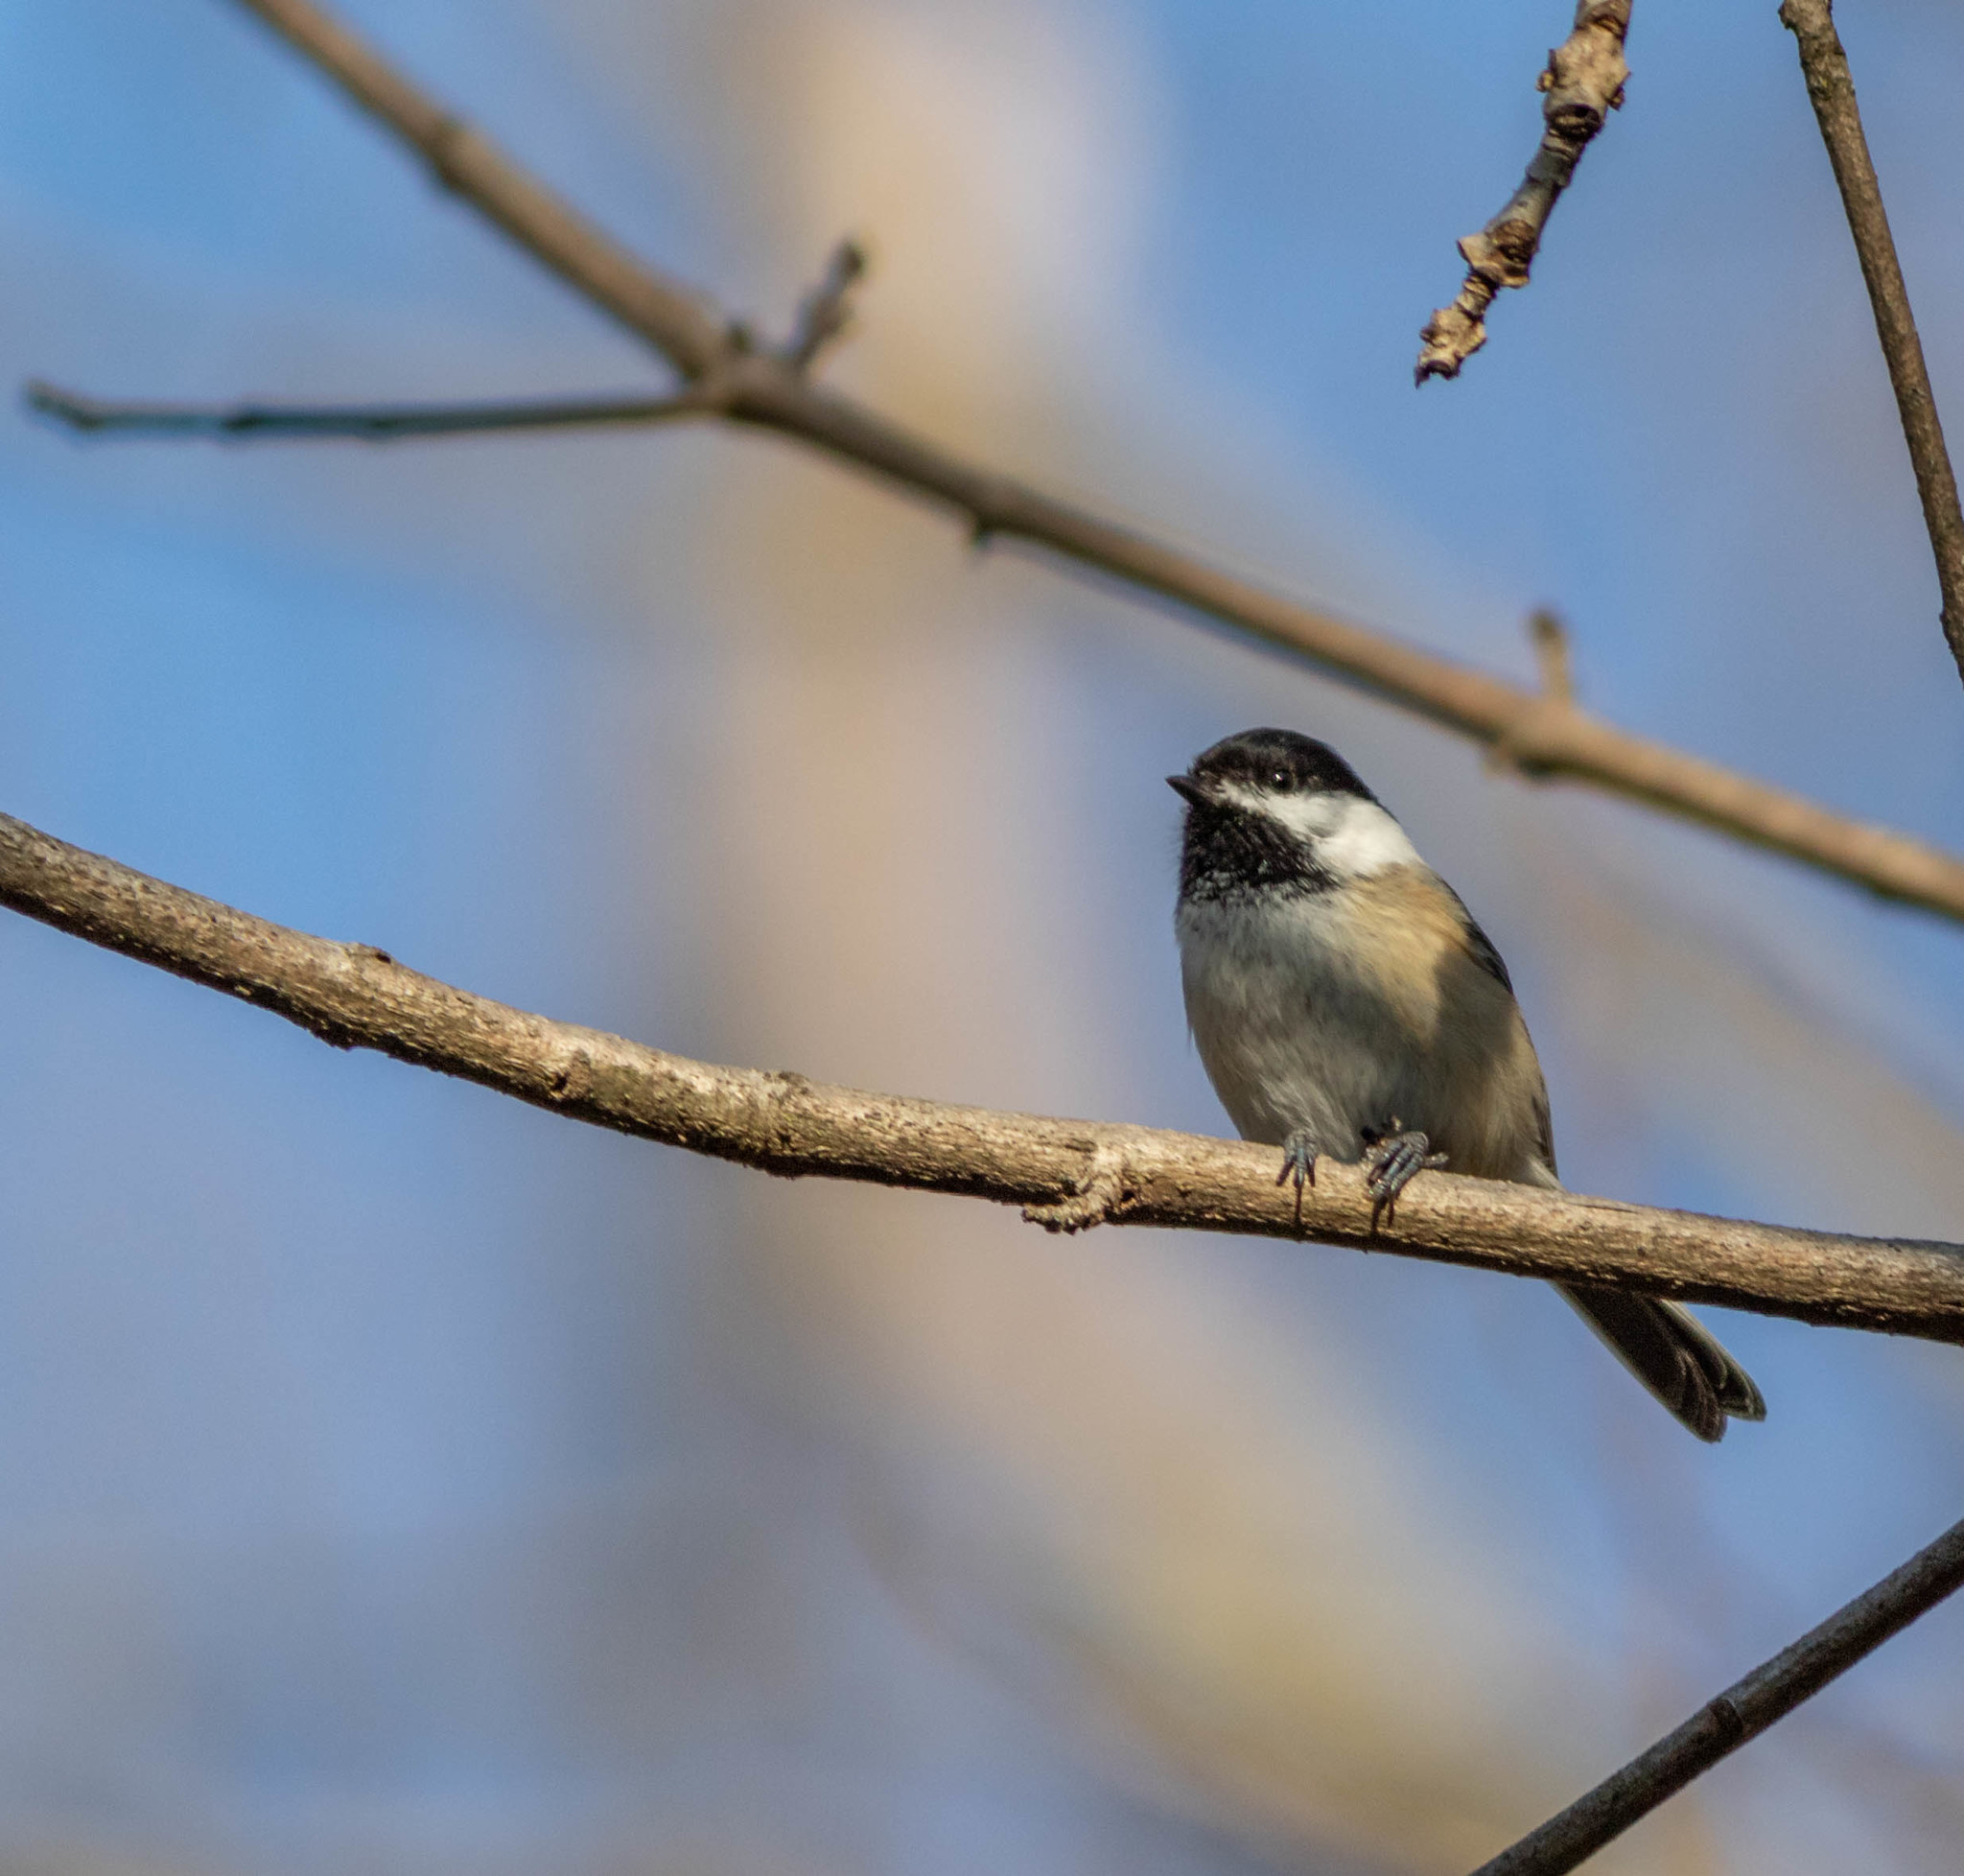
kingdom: Animalia
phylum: Chordata
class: Aves
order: Passeriformes
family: Paridae
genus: Poecile
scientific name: Poecile carolinensis
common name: Carolina chickadee
